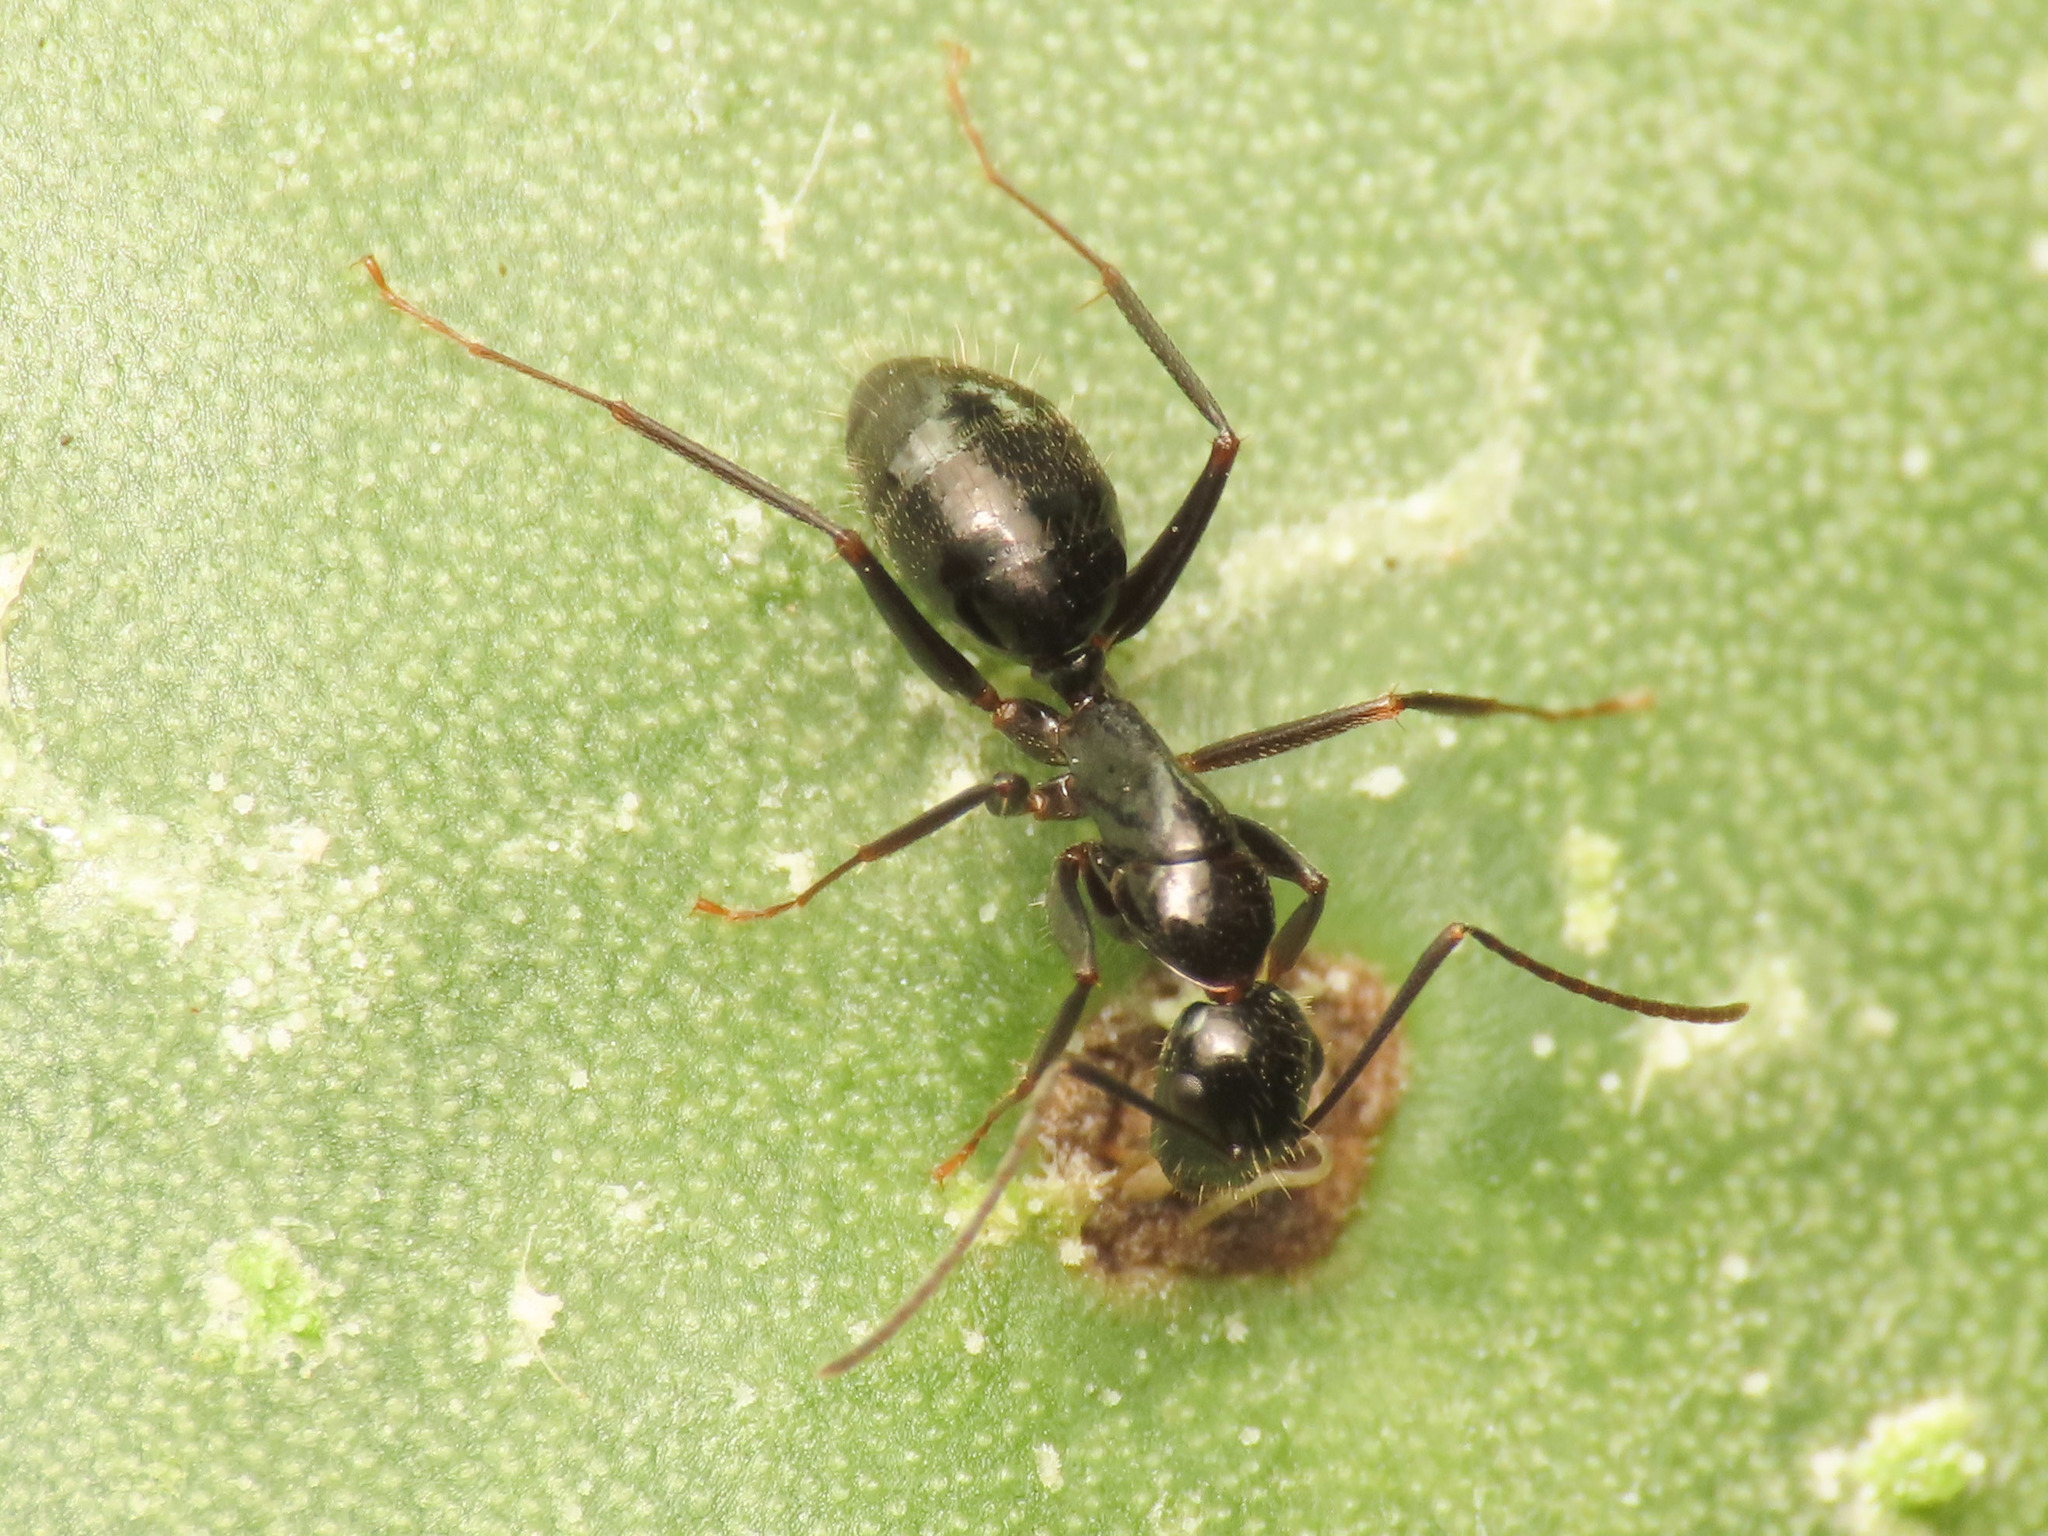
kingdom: Animalia
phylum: Arthropoda
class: Insecta
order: Hymenoptera
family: Formicidae
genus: Camponotus
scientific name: Camponotus aethiops
